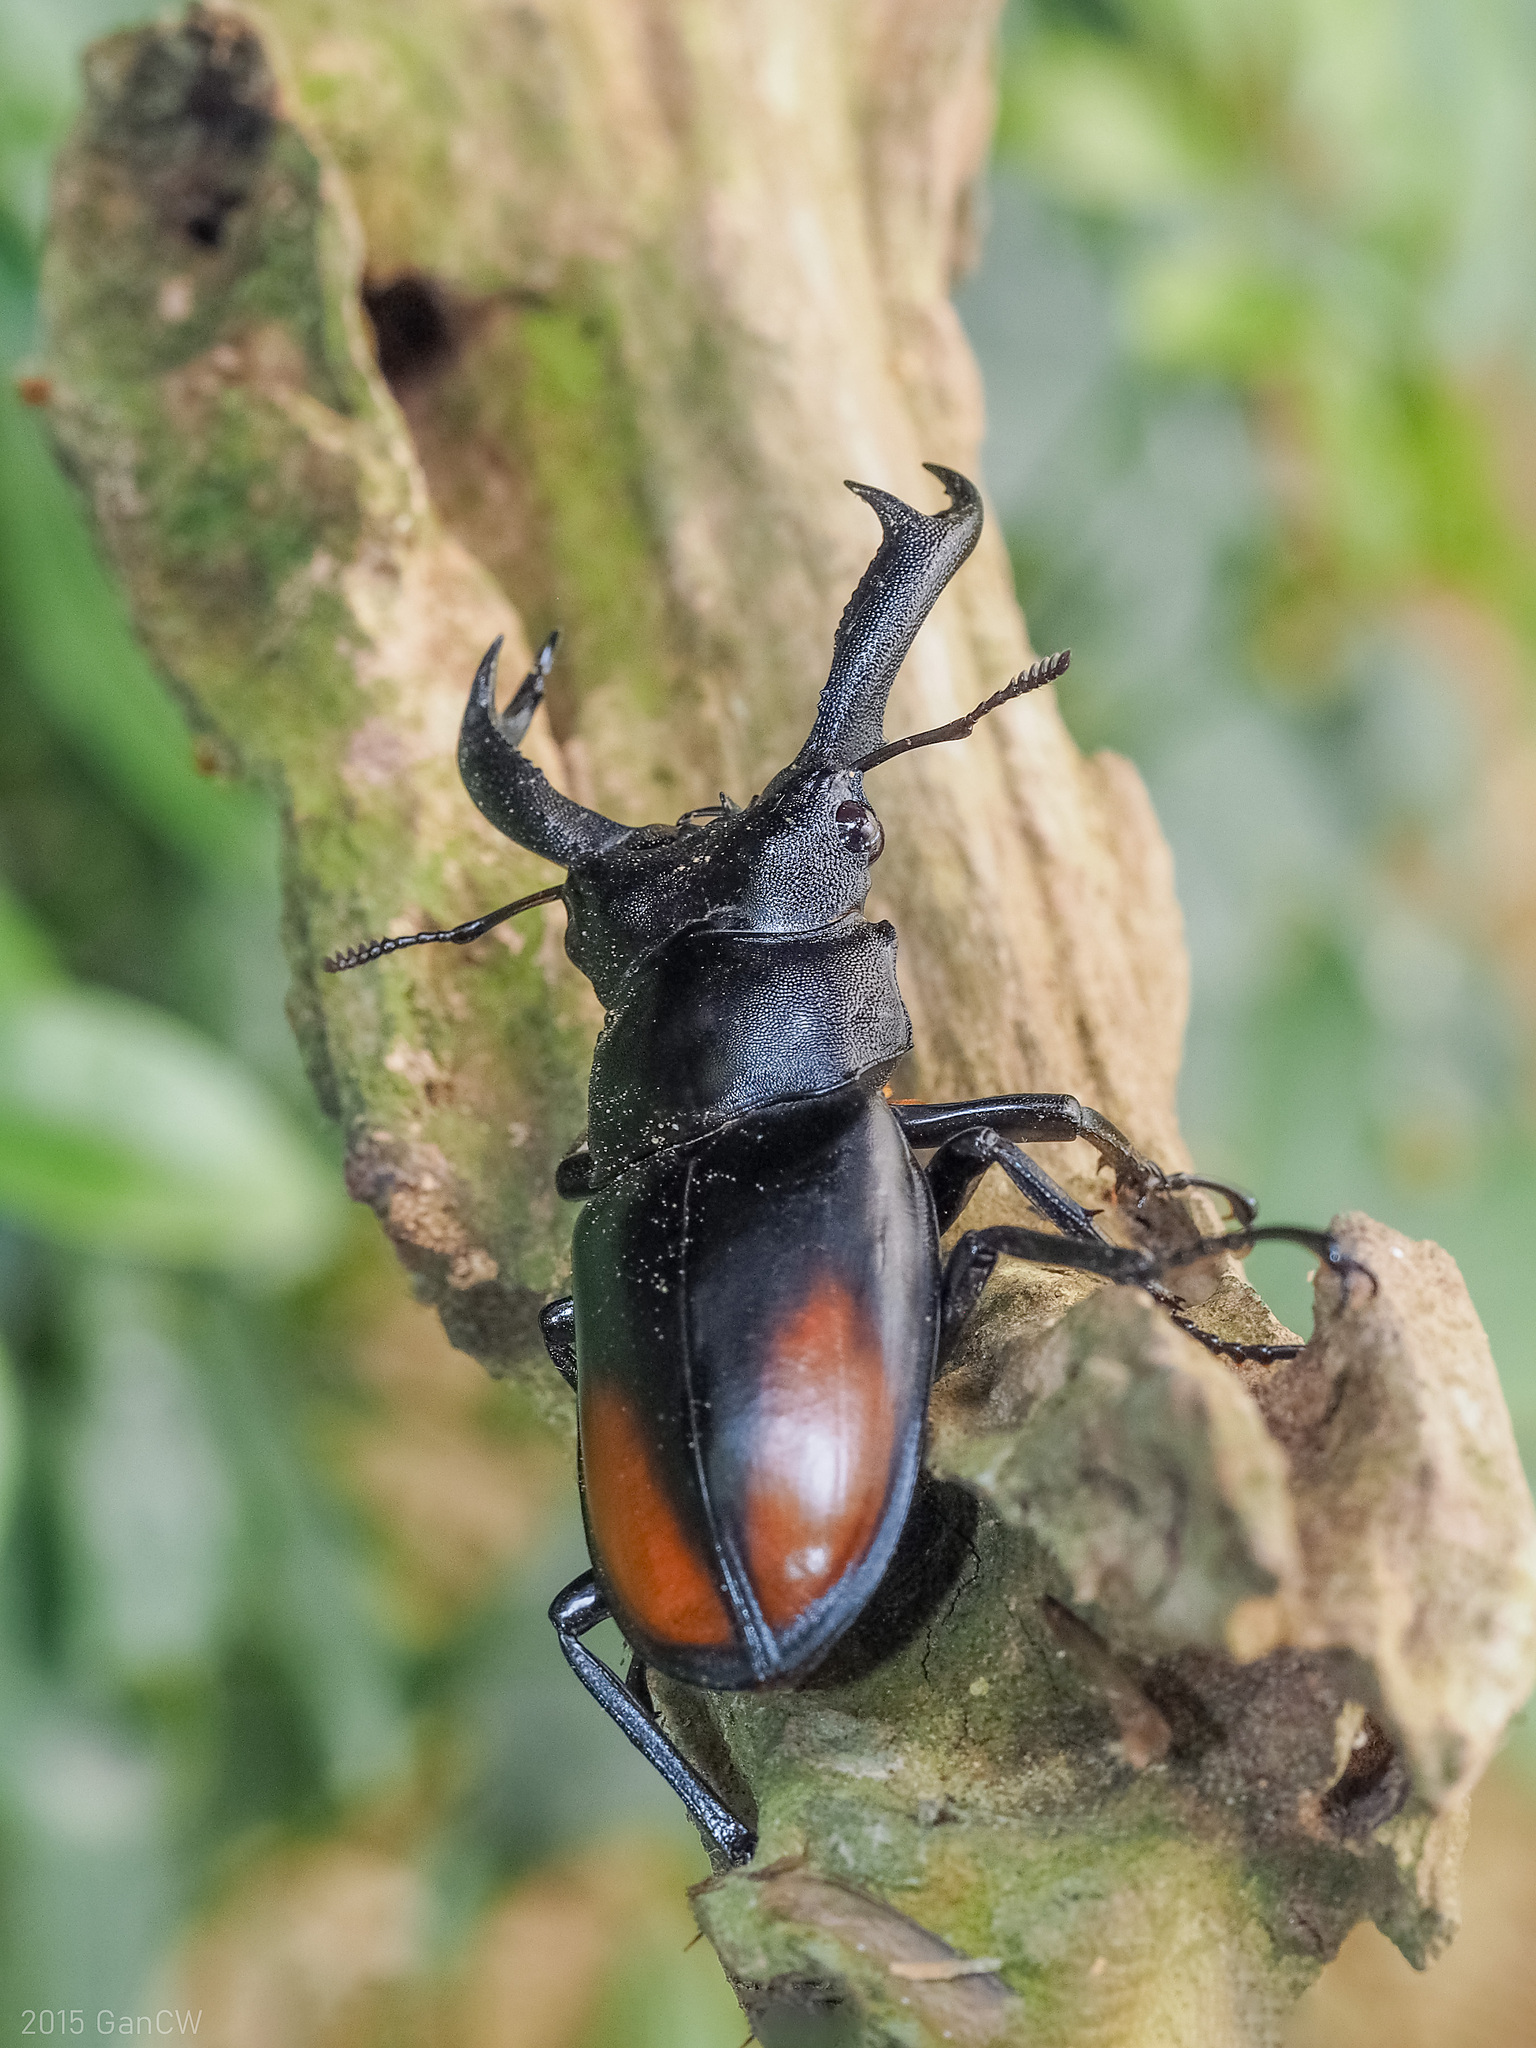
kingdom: Animalia
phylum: Arthropoda
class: Insecta
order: Coleoptera
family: Lucanidae
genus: Hexarthrius
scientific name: Hexarthrius parryi
